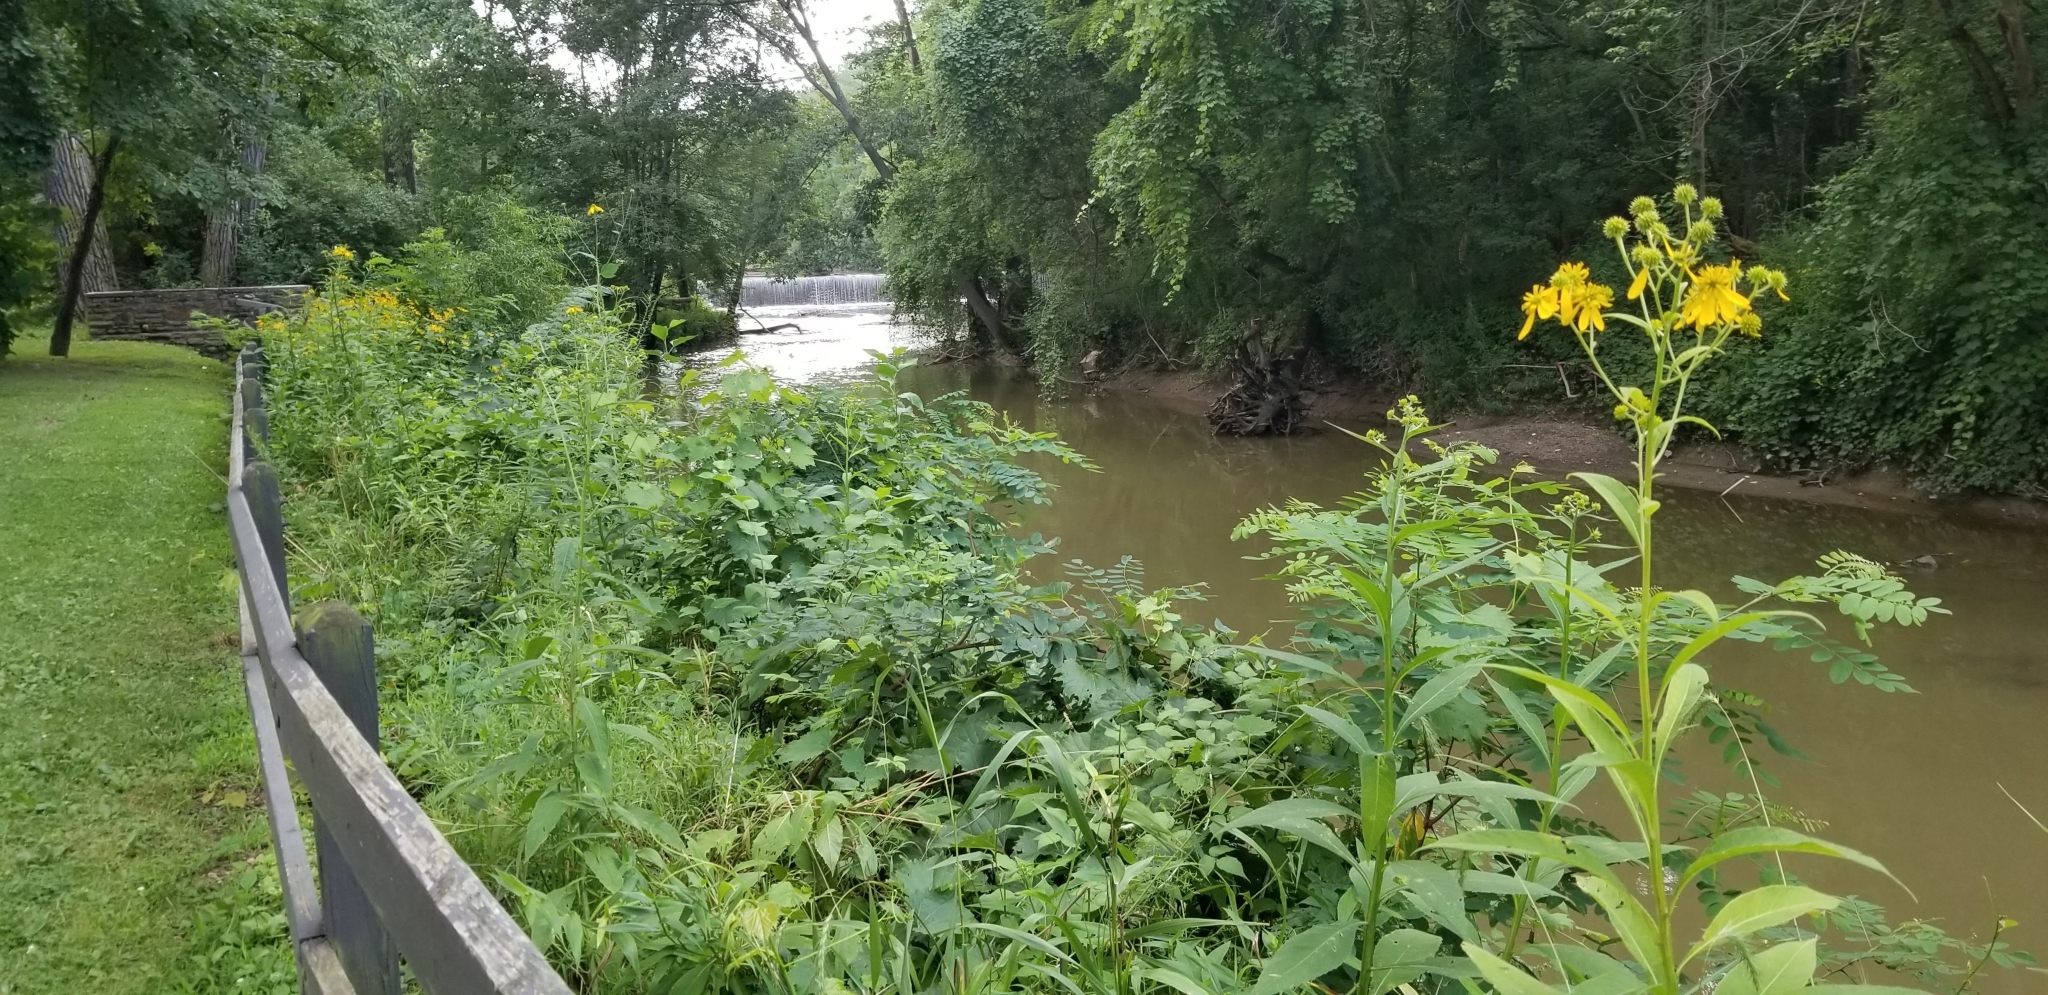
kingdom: Plantae
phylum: Tracheophyta
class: Magnoliopsida
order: Asterales
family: Asteraceae
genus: Verbesina
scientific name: Verbesina alternifolia
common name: Wingstem
